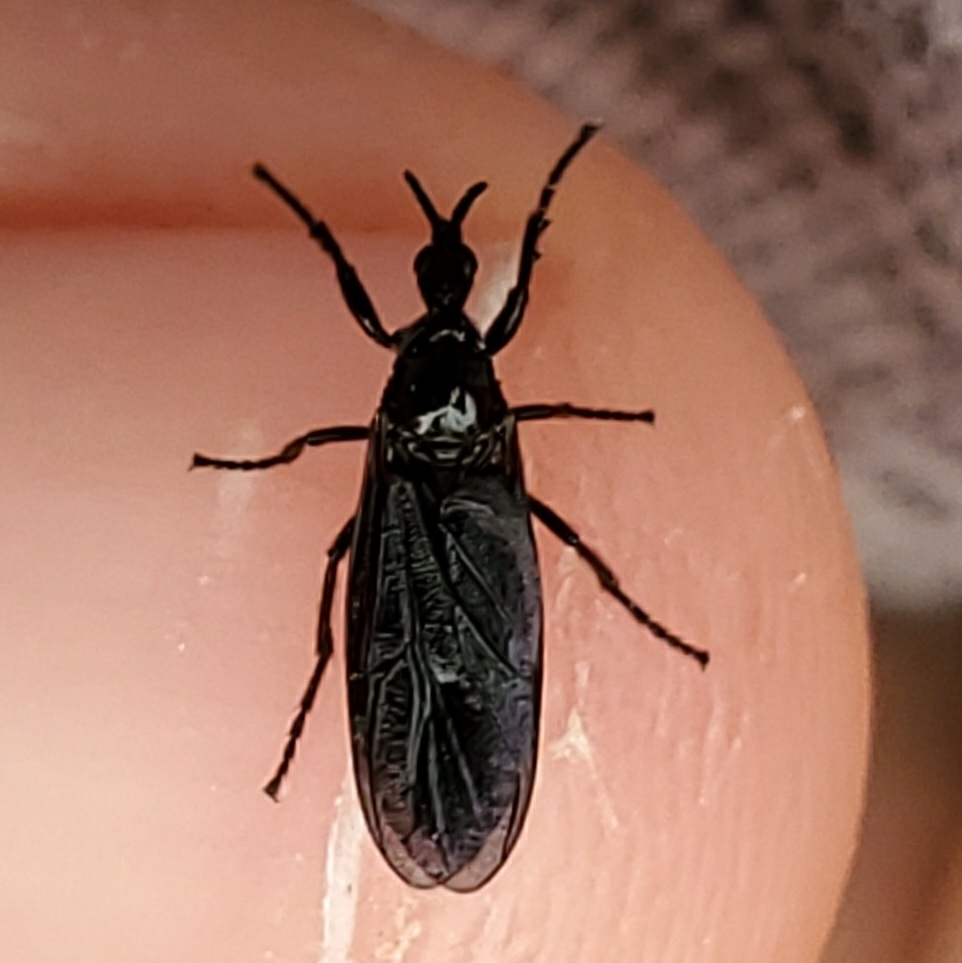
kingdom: Animalia
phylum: Arthropoda
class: Insecta
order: Diptera
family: Bibionidae
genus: Dilophus
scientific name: Dilophus orbatus
